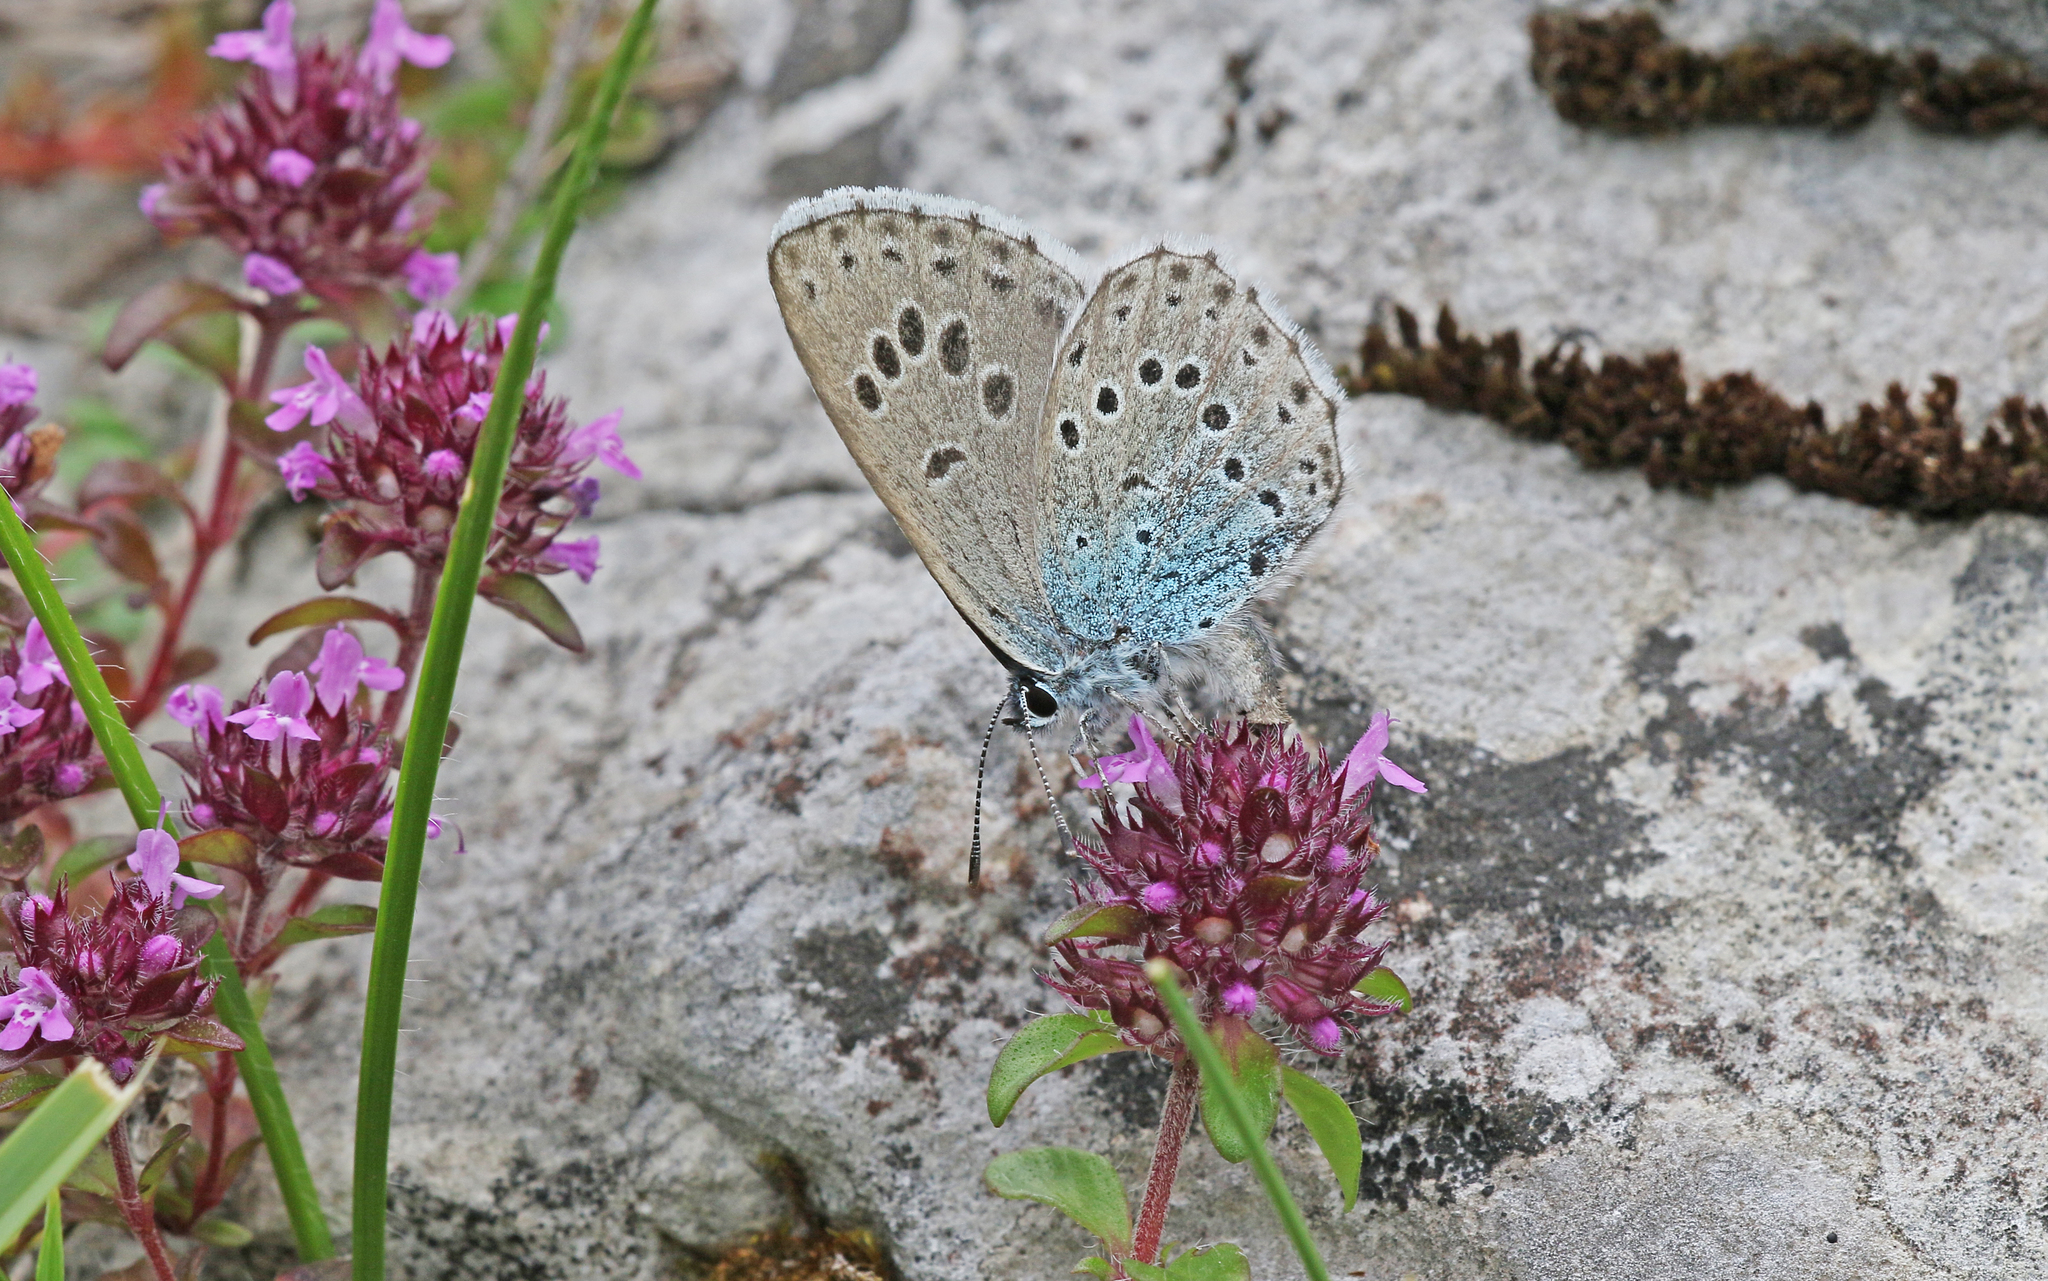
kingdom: Animalia
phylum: Arthropoda
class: Insecta
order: Lepidoptera
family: Lycaenidae
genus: Maculinea
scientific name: Maculinea arion
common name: Large blue
